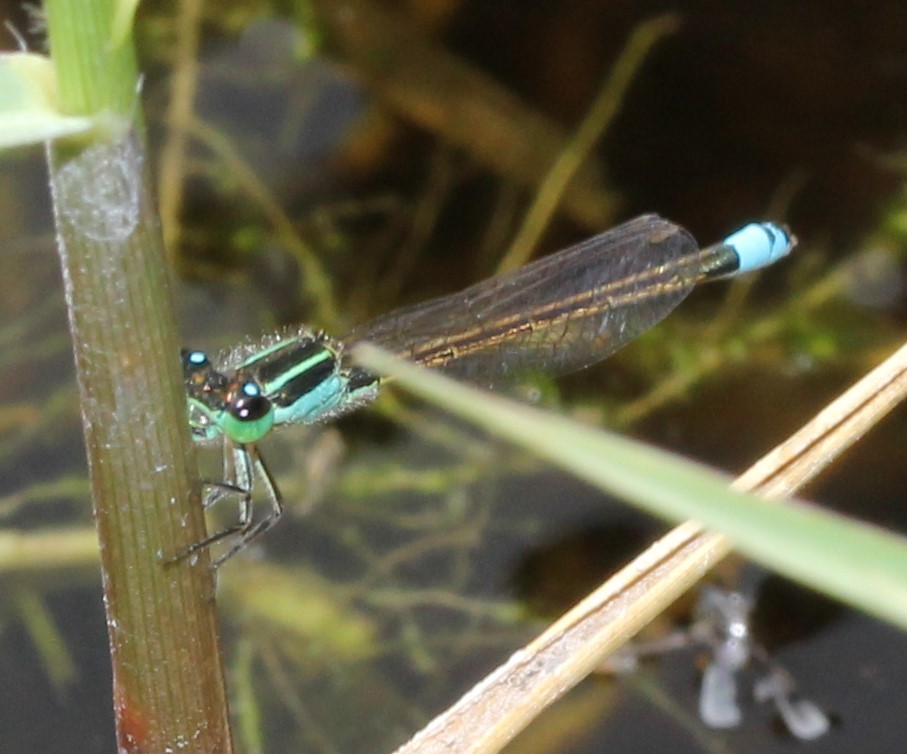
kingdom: Animalia
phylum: Arthropoda
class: Insecta
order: Odonata
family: Coenagrionidae
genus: Ischnura
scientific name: Ischnura ramburii
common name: Rambur's forktail
